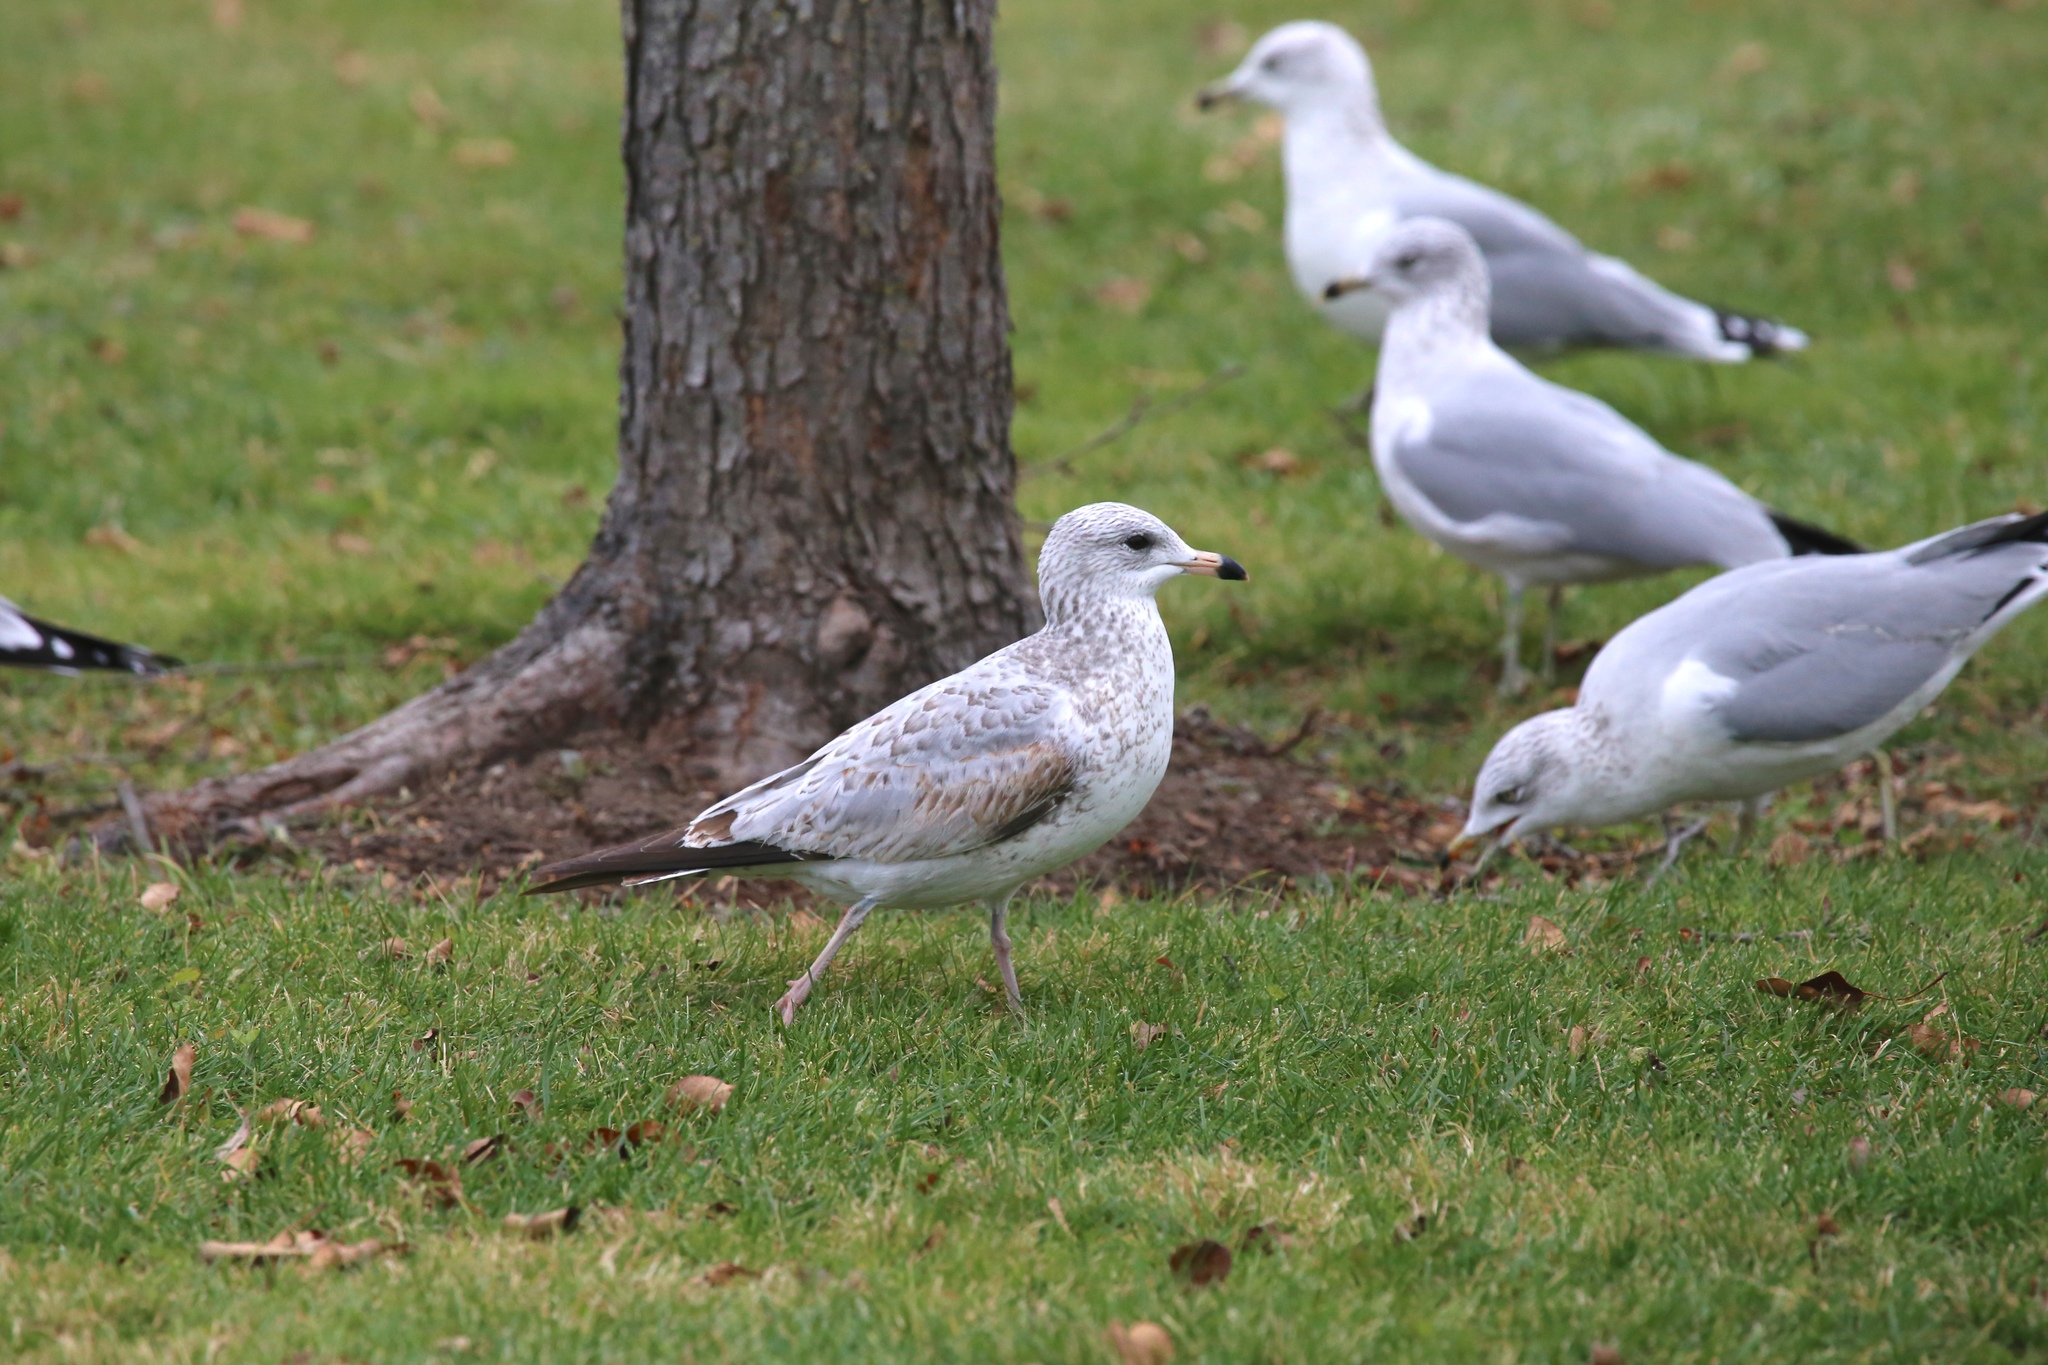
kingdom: Animalia
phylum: Chordata
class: Aves
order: Charadriiformes
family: Laridae
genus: Larus
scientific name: Larus delawarensis
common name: Ring-billed gull
